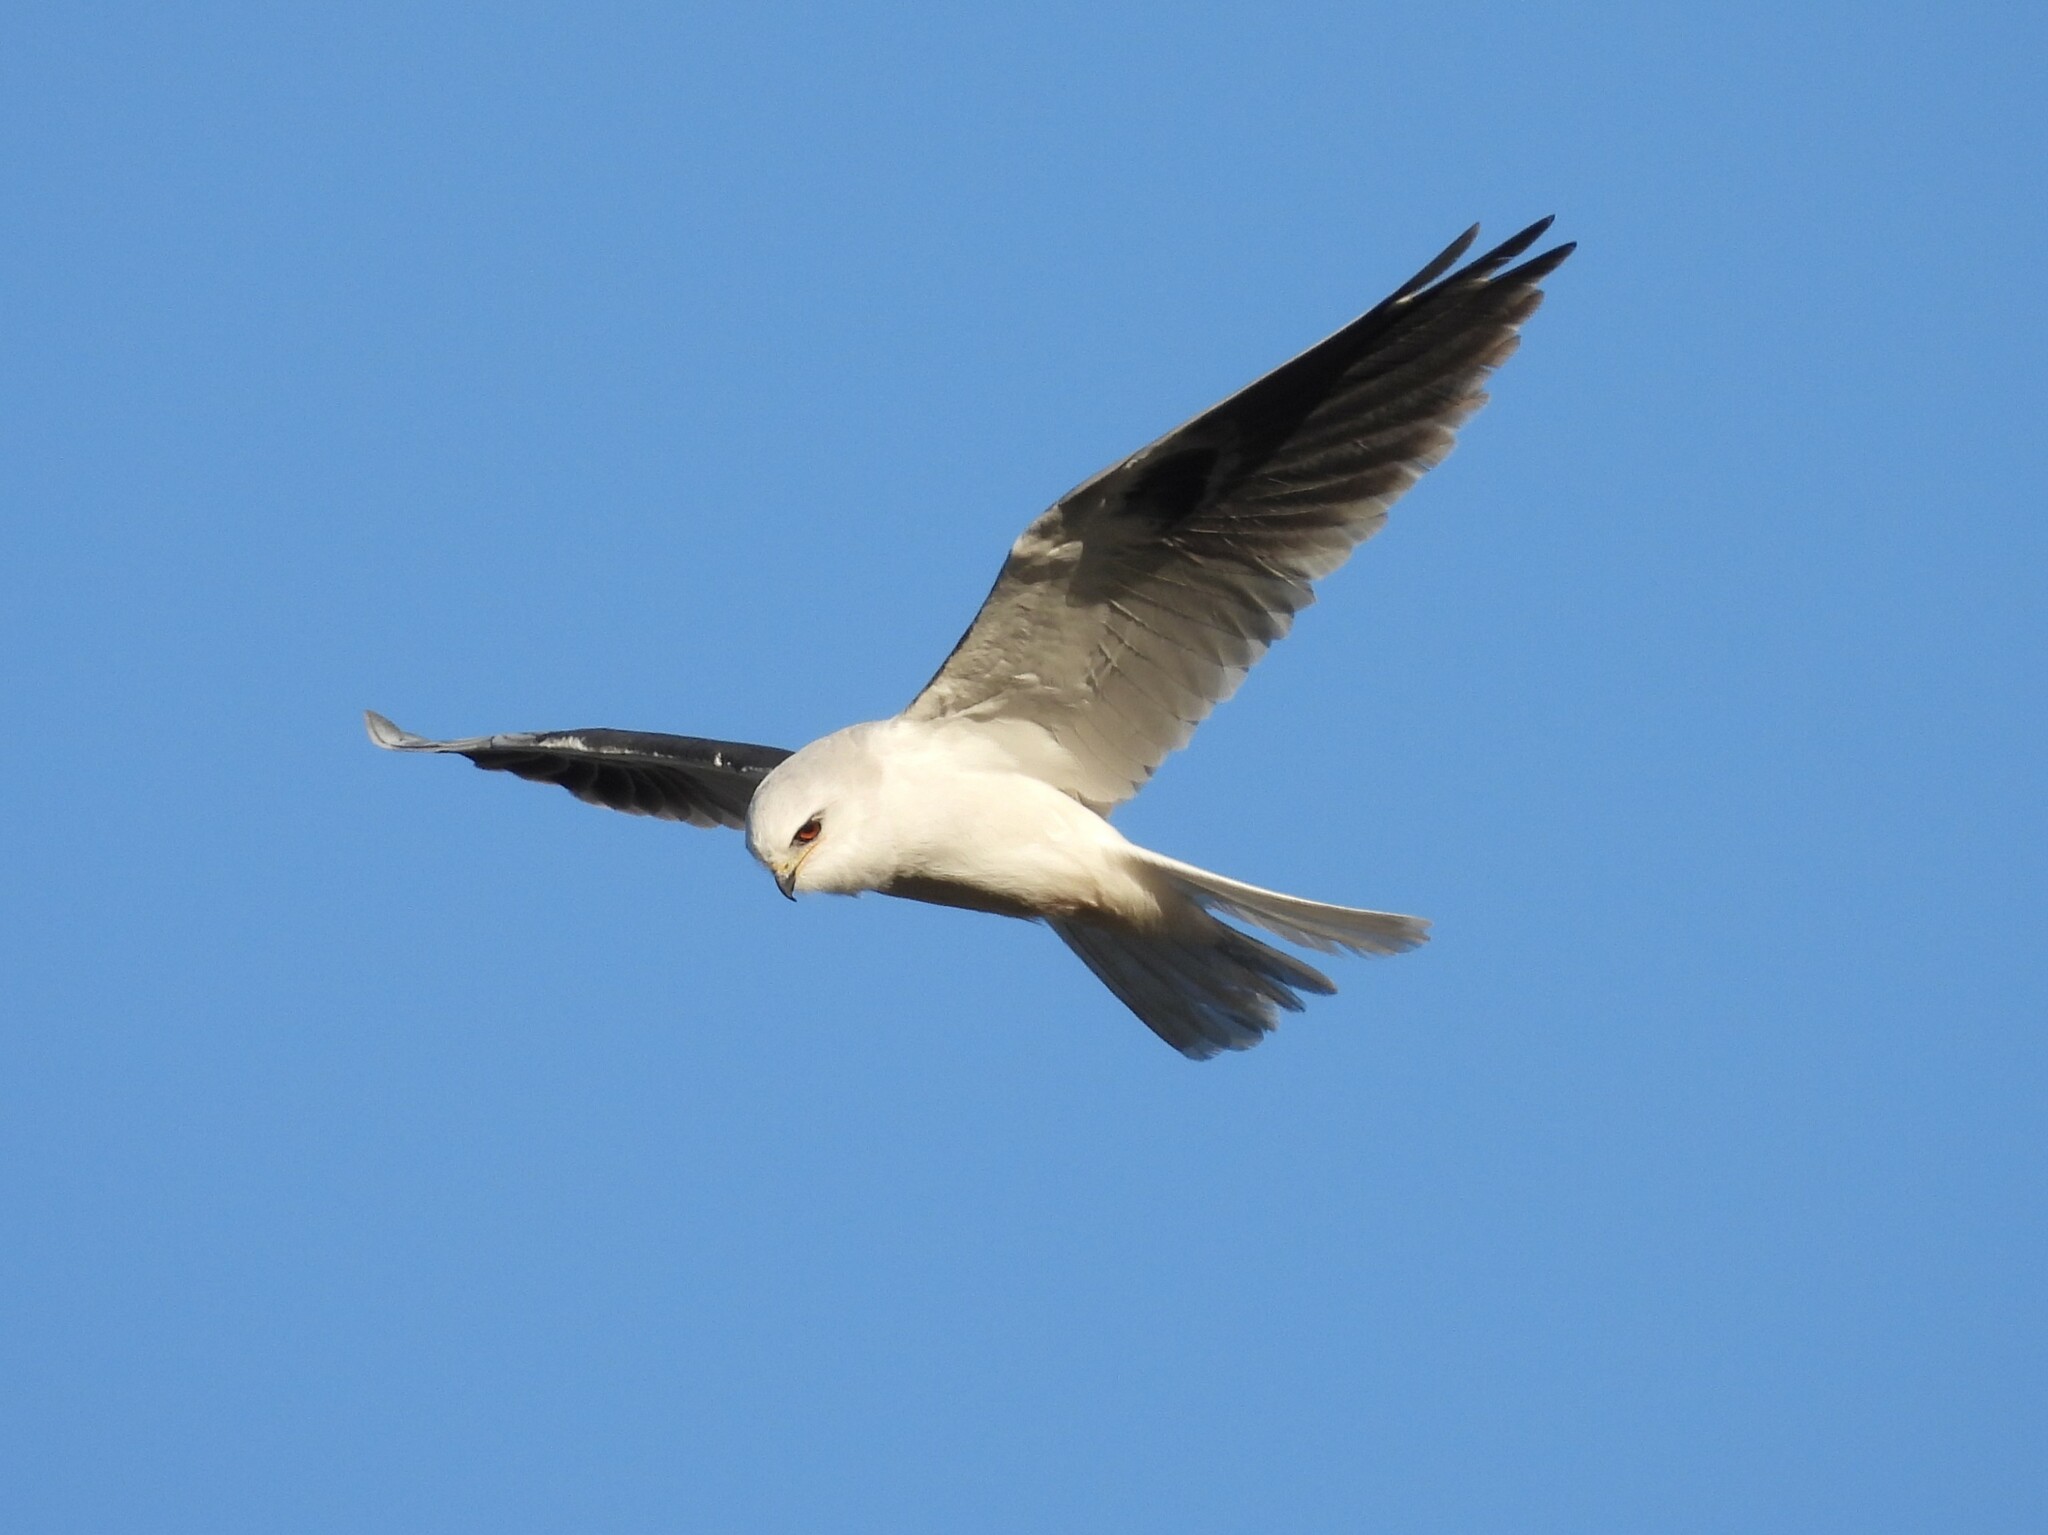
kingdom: Animalia
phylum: Chordata
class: Aves
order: Accipitriformes
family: Accipitridae
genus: Elanus
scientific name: Elanus leucurus
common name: White-tailed kite
